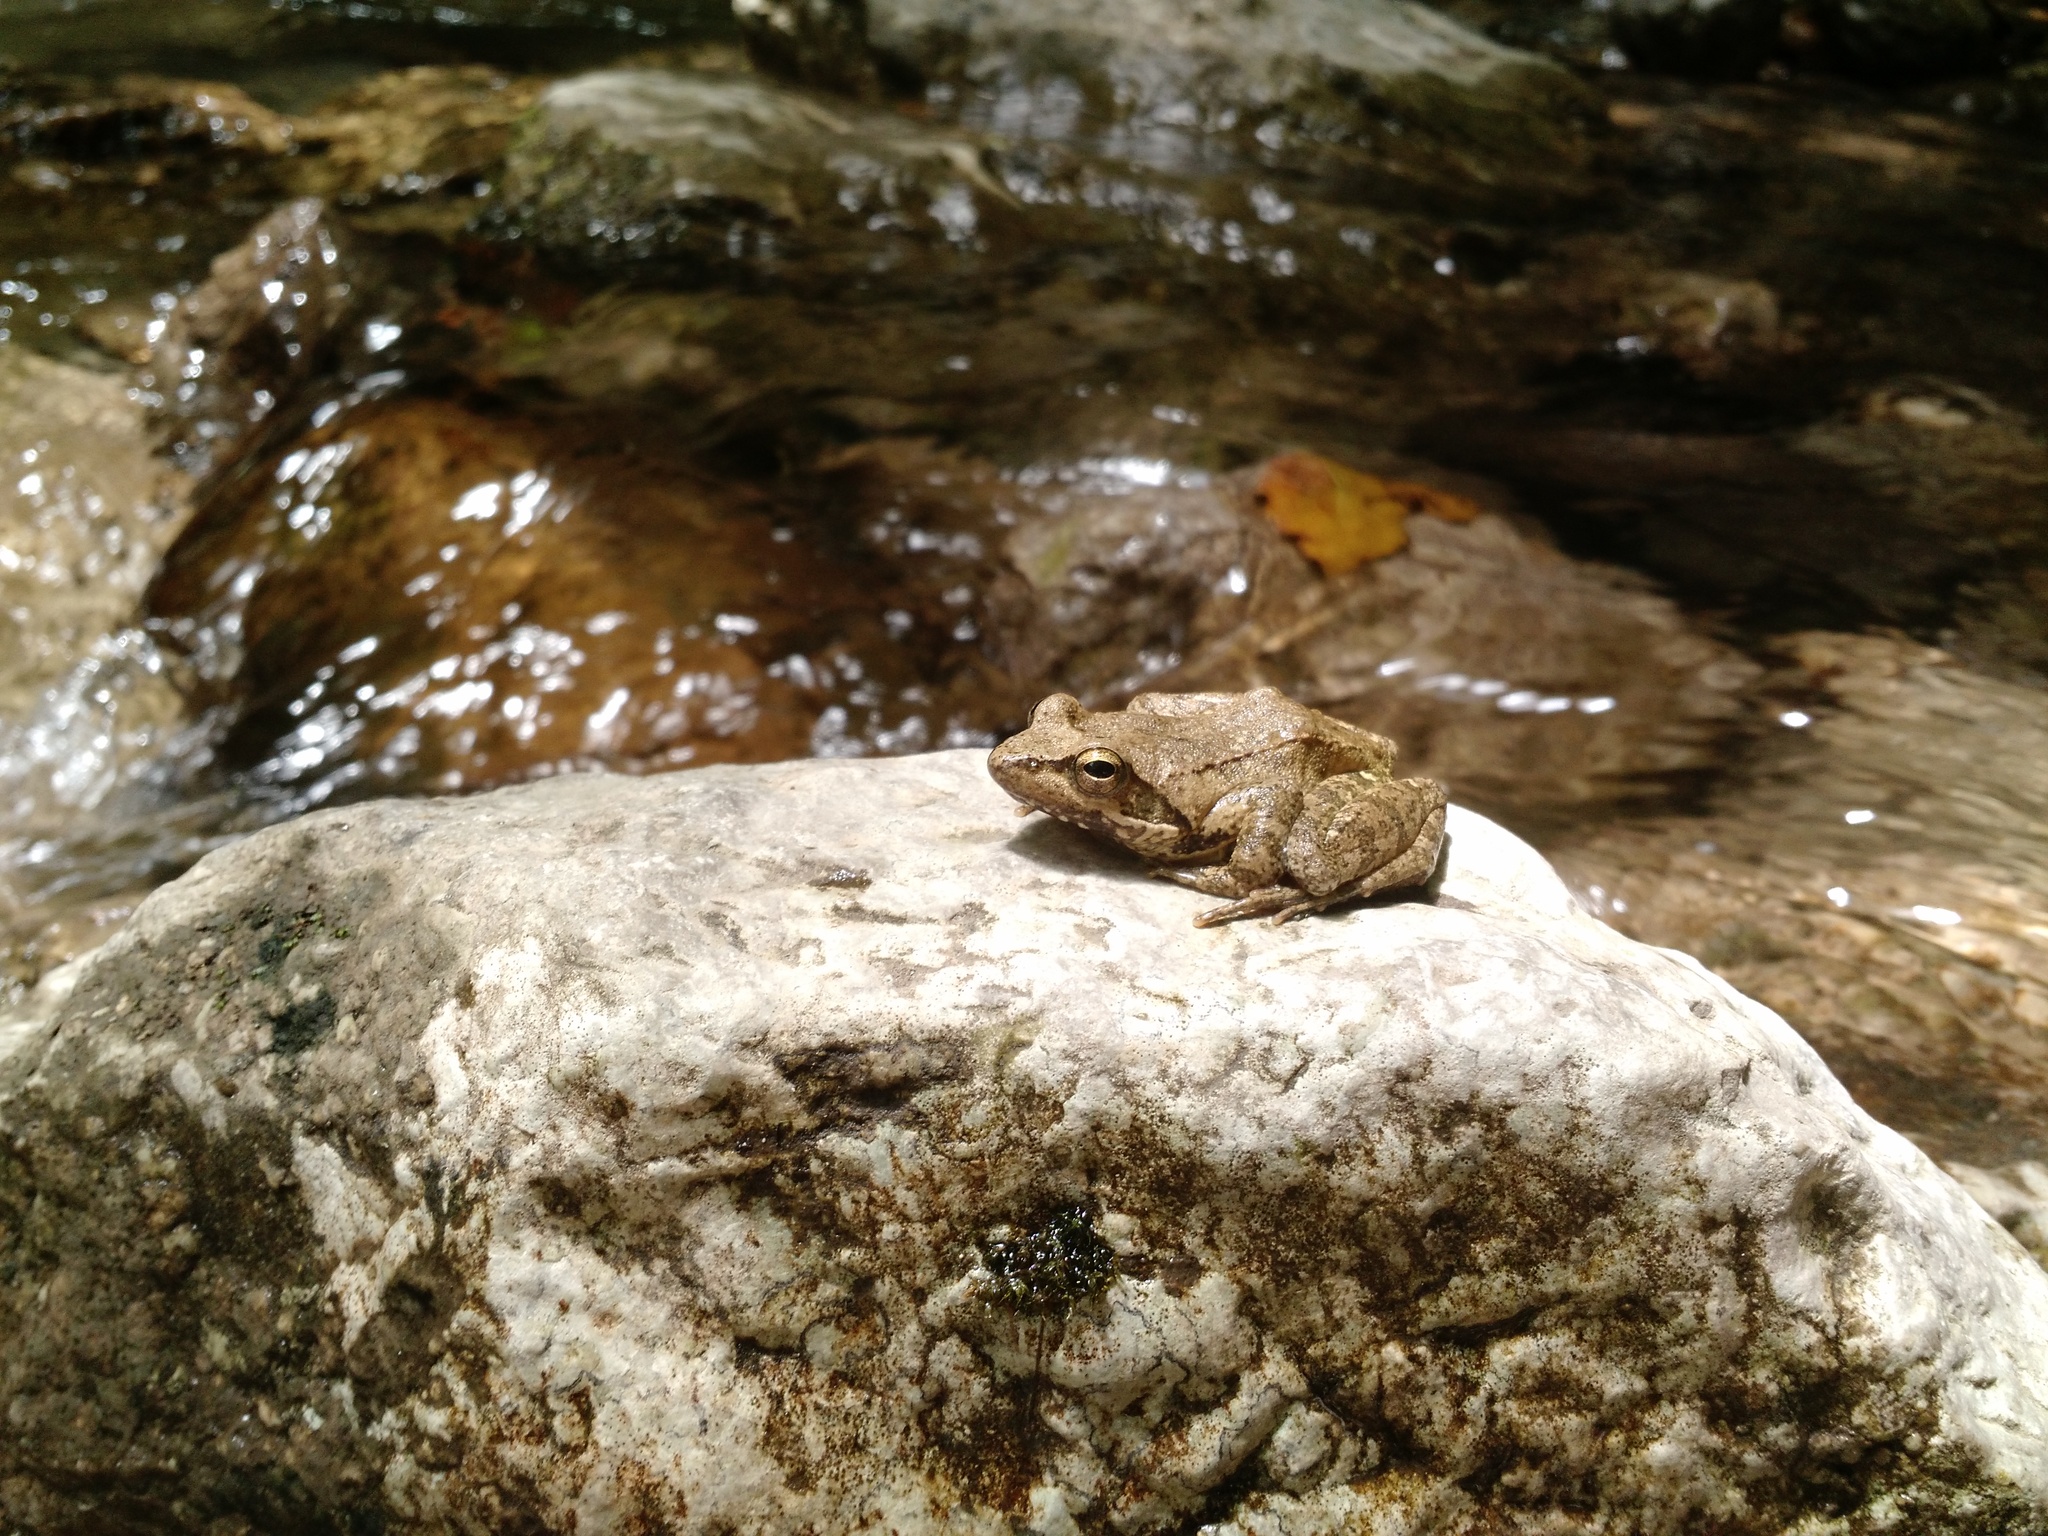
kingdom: Animalia
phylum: Chordata
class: Amphibia
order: Anura
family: Ranidae
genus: Rana
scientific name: Rana italica
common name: Italian stream frog
